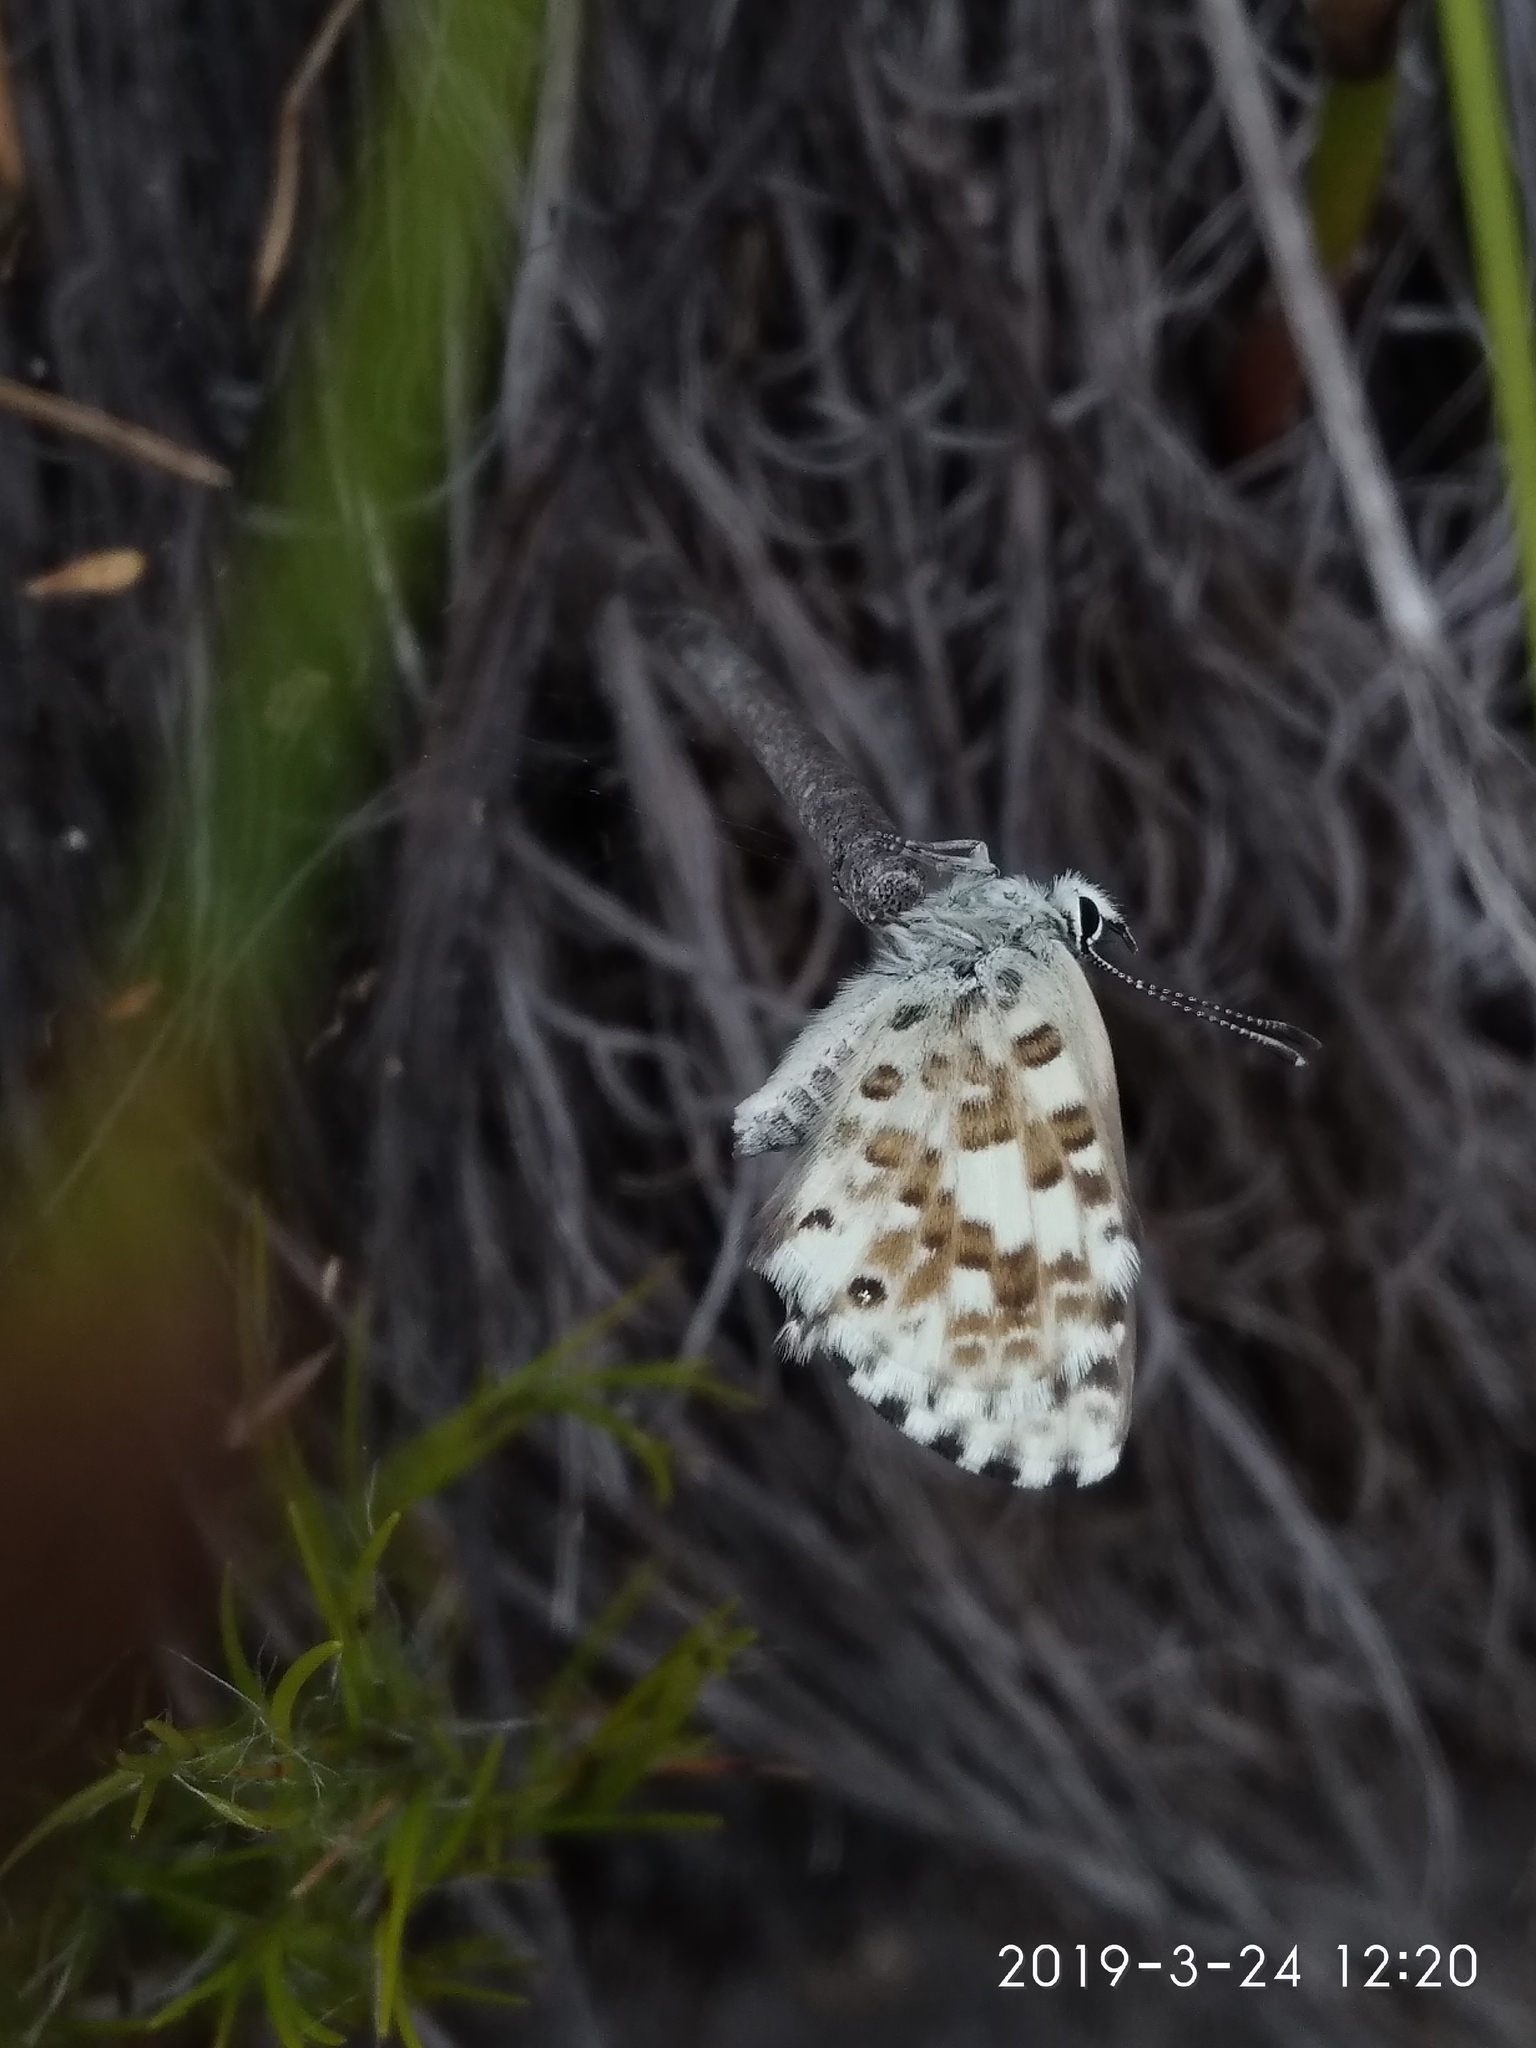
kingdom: Animalia
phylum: Arthropoda
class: Insecta
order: Lepidoptera
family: Lycaenidae
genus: Tarucus
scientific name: Tarucus thespis
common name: Vivid dotted blue
